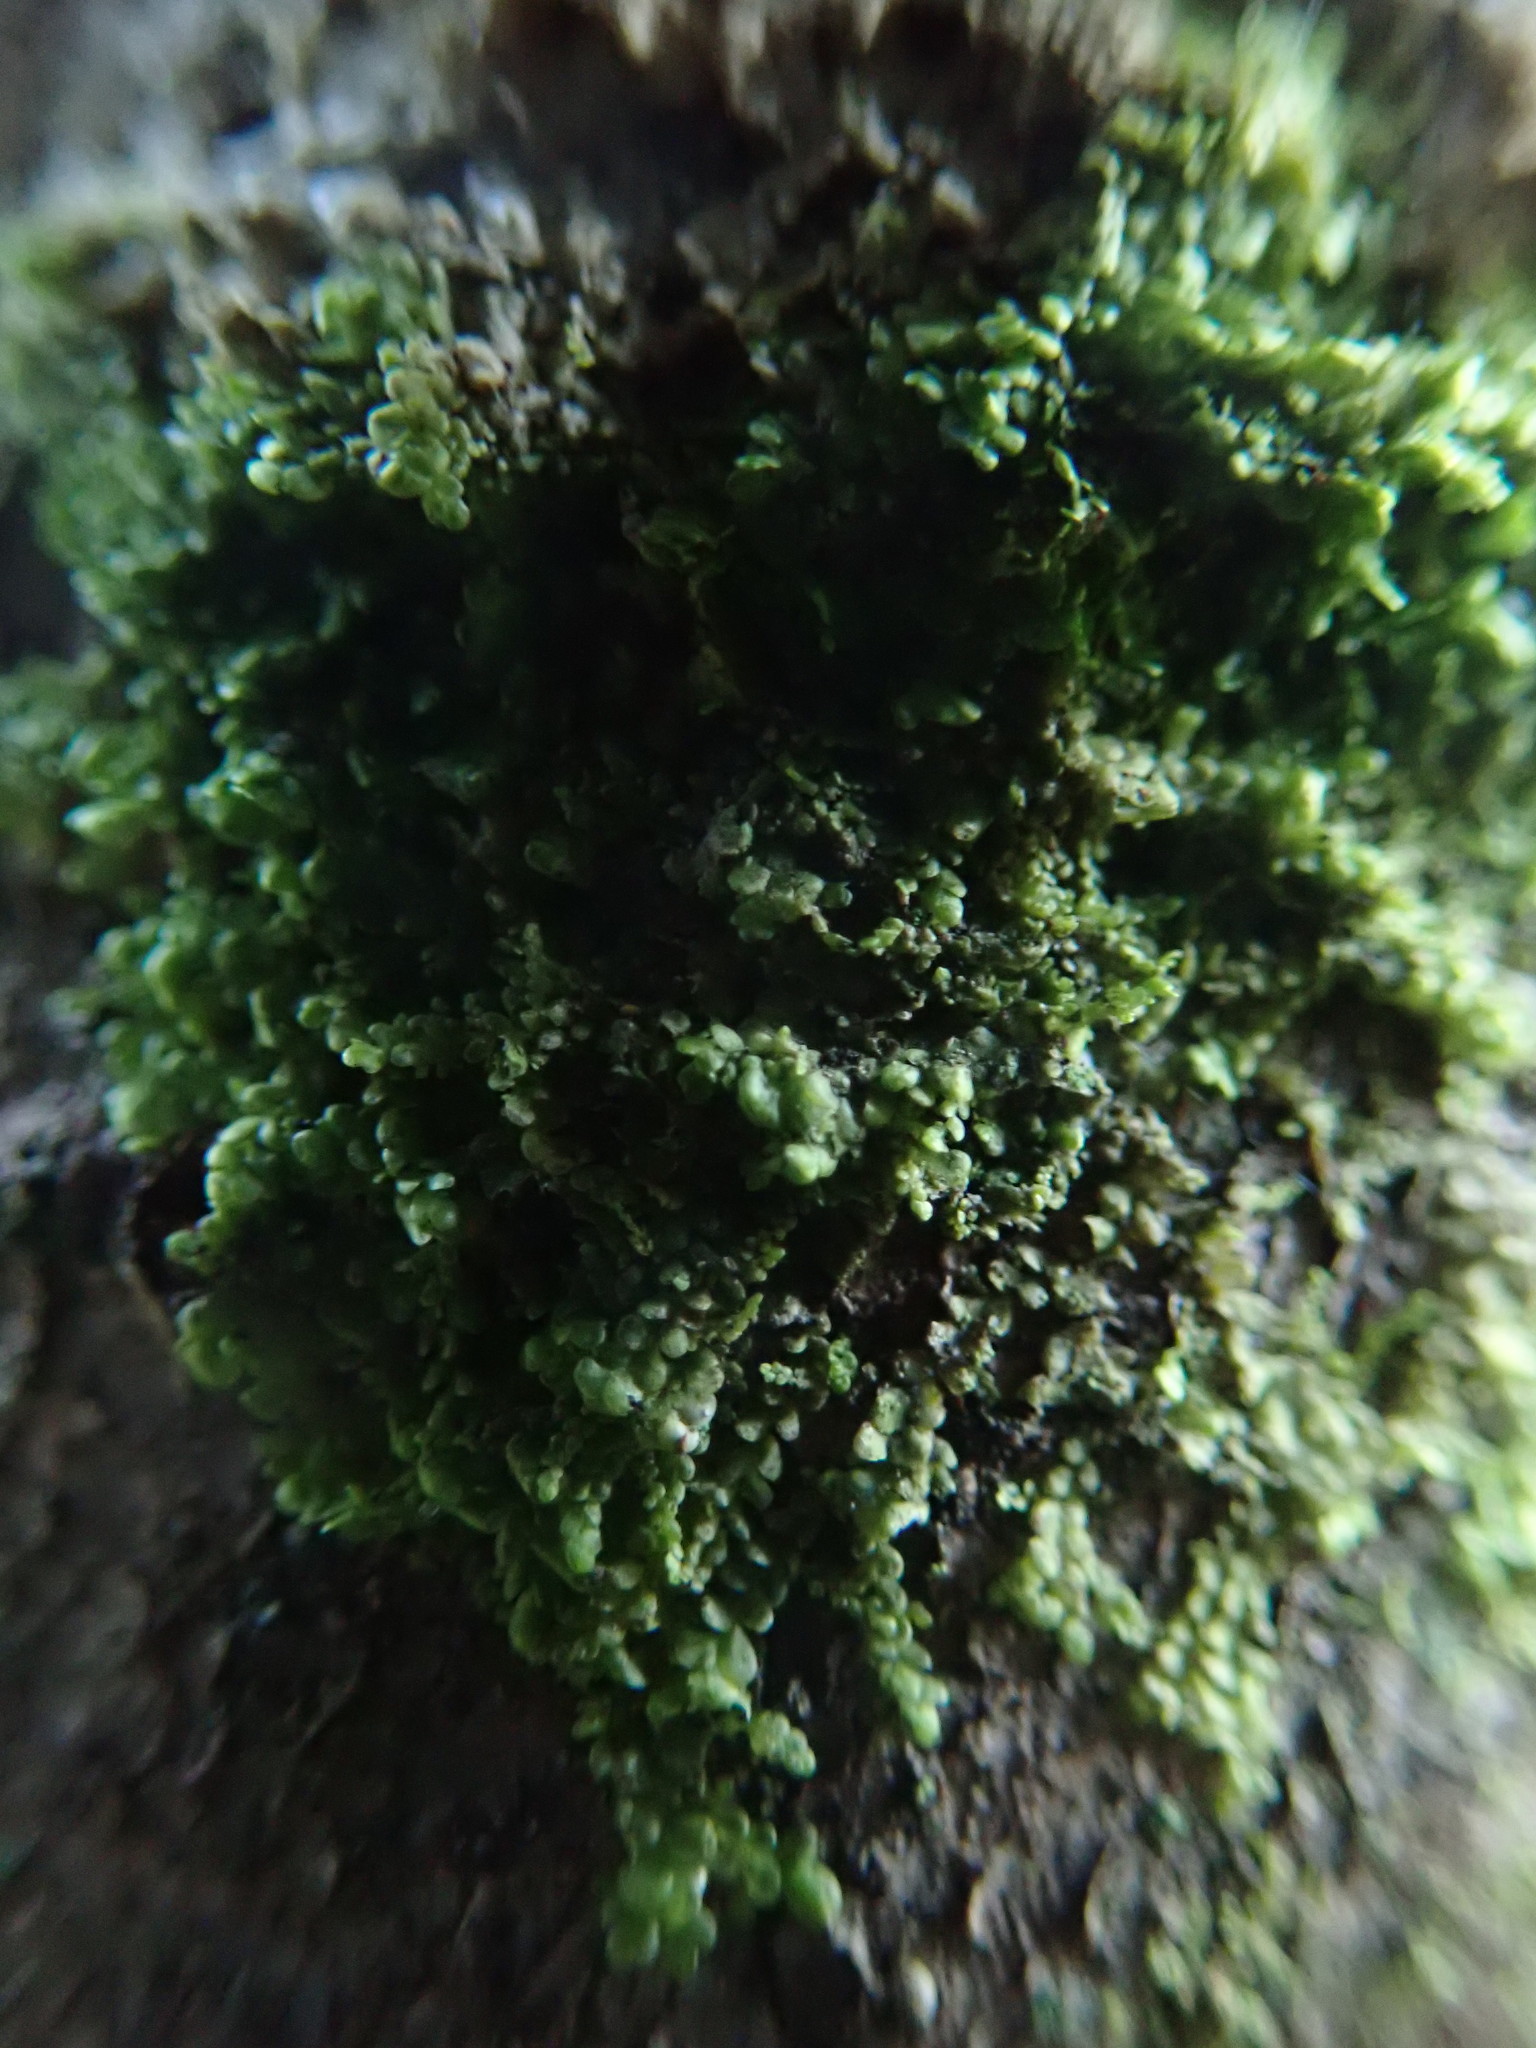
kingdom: Plantae
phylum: Marchantiophyta
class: Jungermanniopsida
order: Porellales
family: Radulaceae
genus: Radula
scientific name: Radula bolanderi
